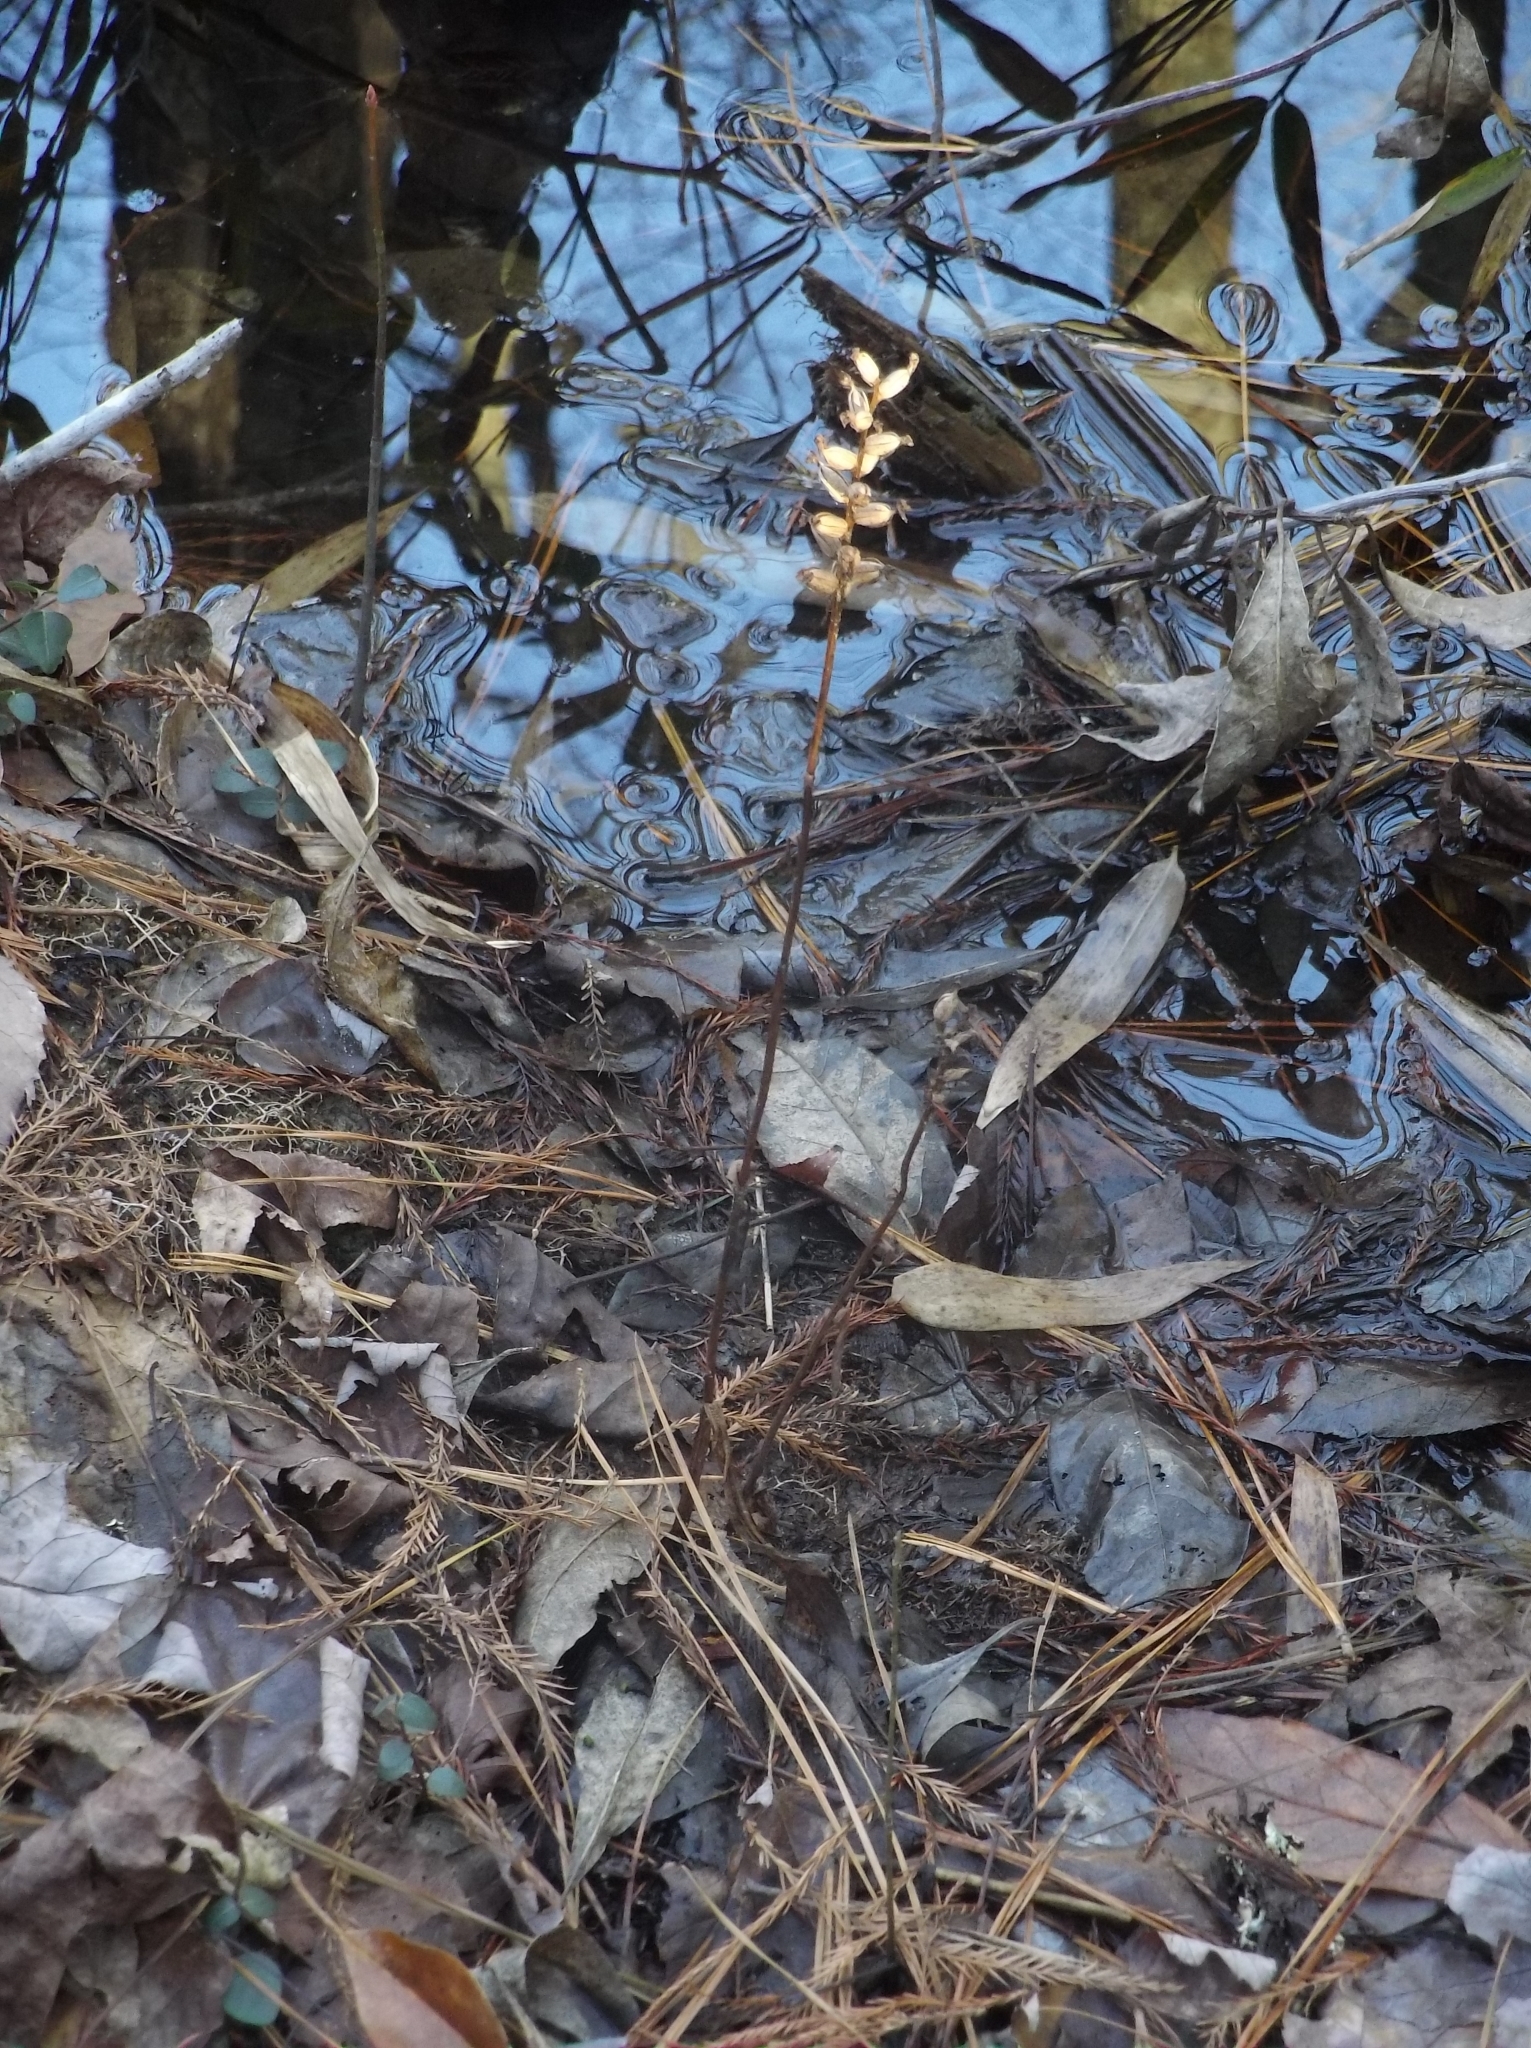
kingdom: Plantae
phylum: Tracheophyta
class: Liliopsida
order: Asparagales
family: Orchidaceae
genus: Platanthera
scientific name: Platanthera clavellata
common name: Club-spur orchid
